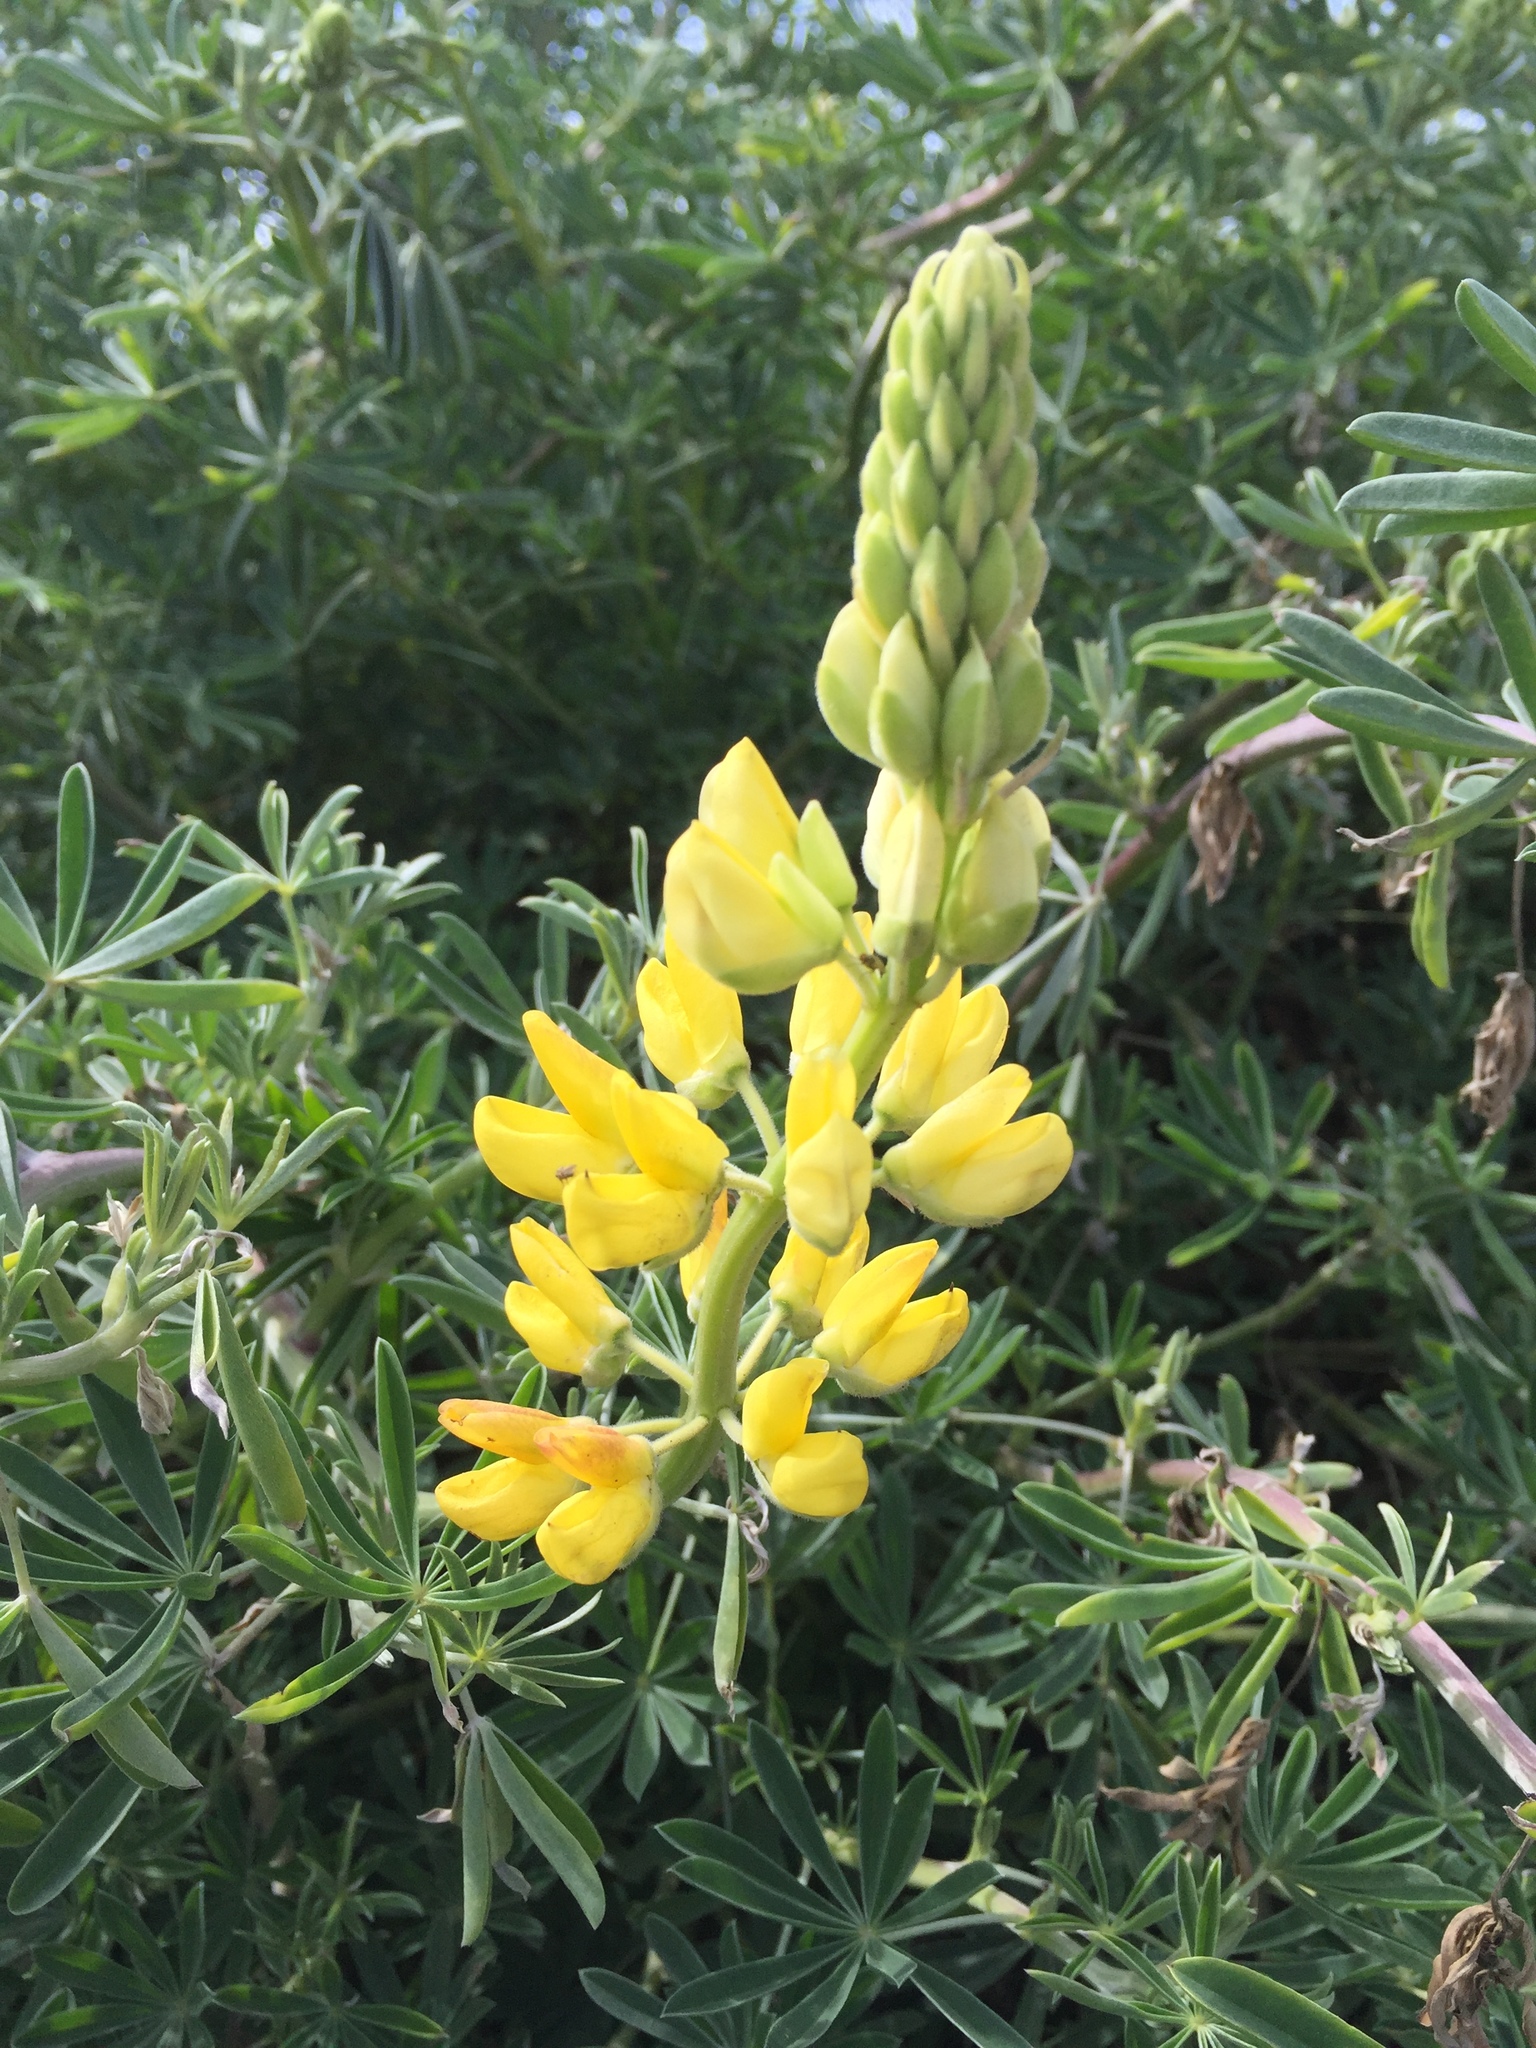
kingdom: Plantae
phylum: Tracheophyta
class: Magnoliopsida
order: Fabales
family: Fabaceae
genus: Lupinus
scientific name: Lupinus arboreus
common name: Yellow bush lupine
